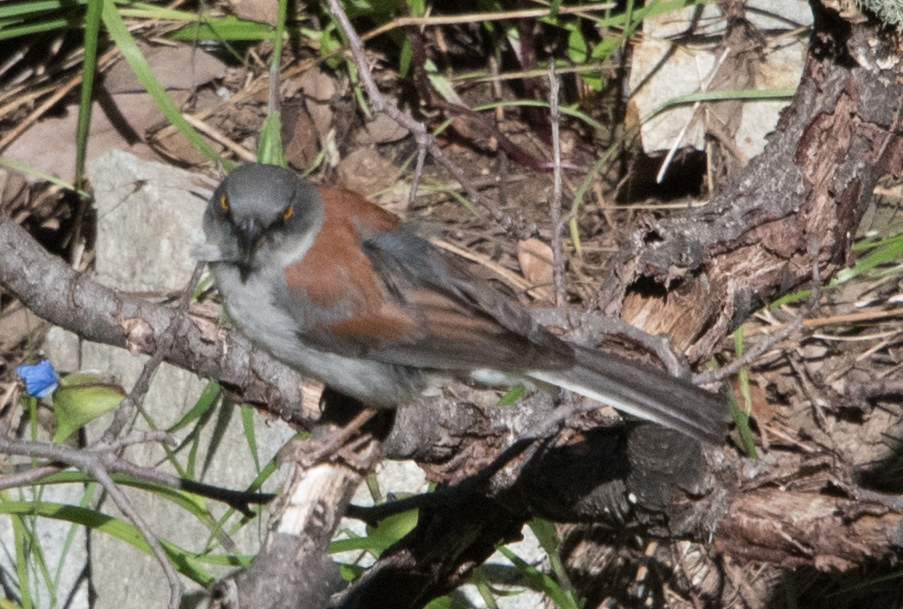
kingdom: Animalia
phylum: Chordata
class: Aves
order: Passeriformes
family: Passerellidae
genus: Junco
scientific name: Junco phaeonotus
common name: Yellow-eyed junco
